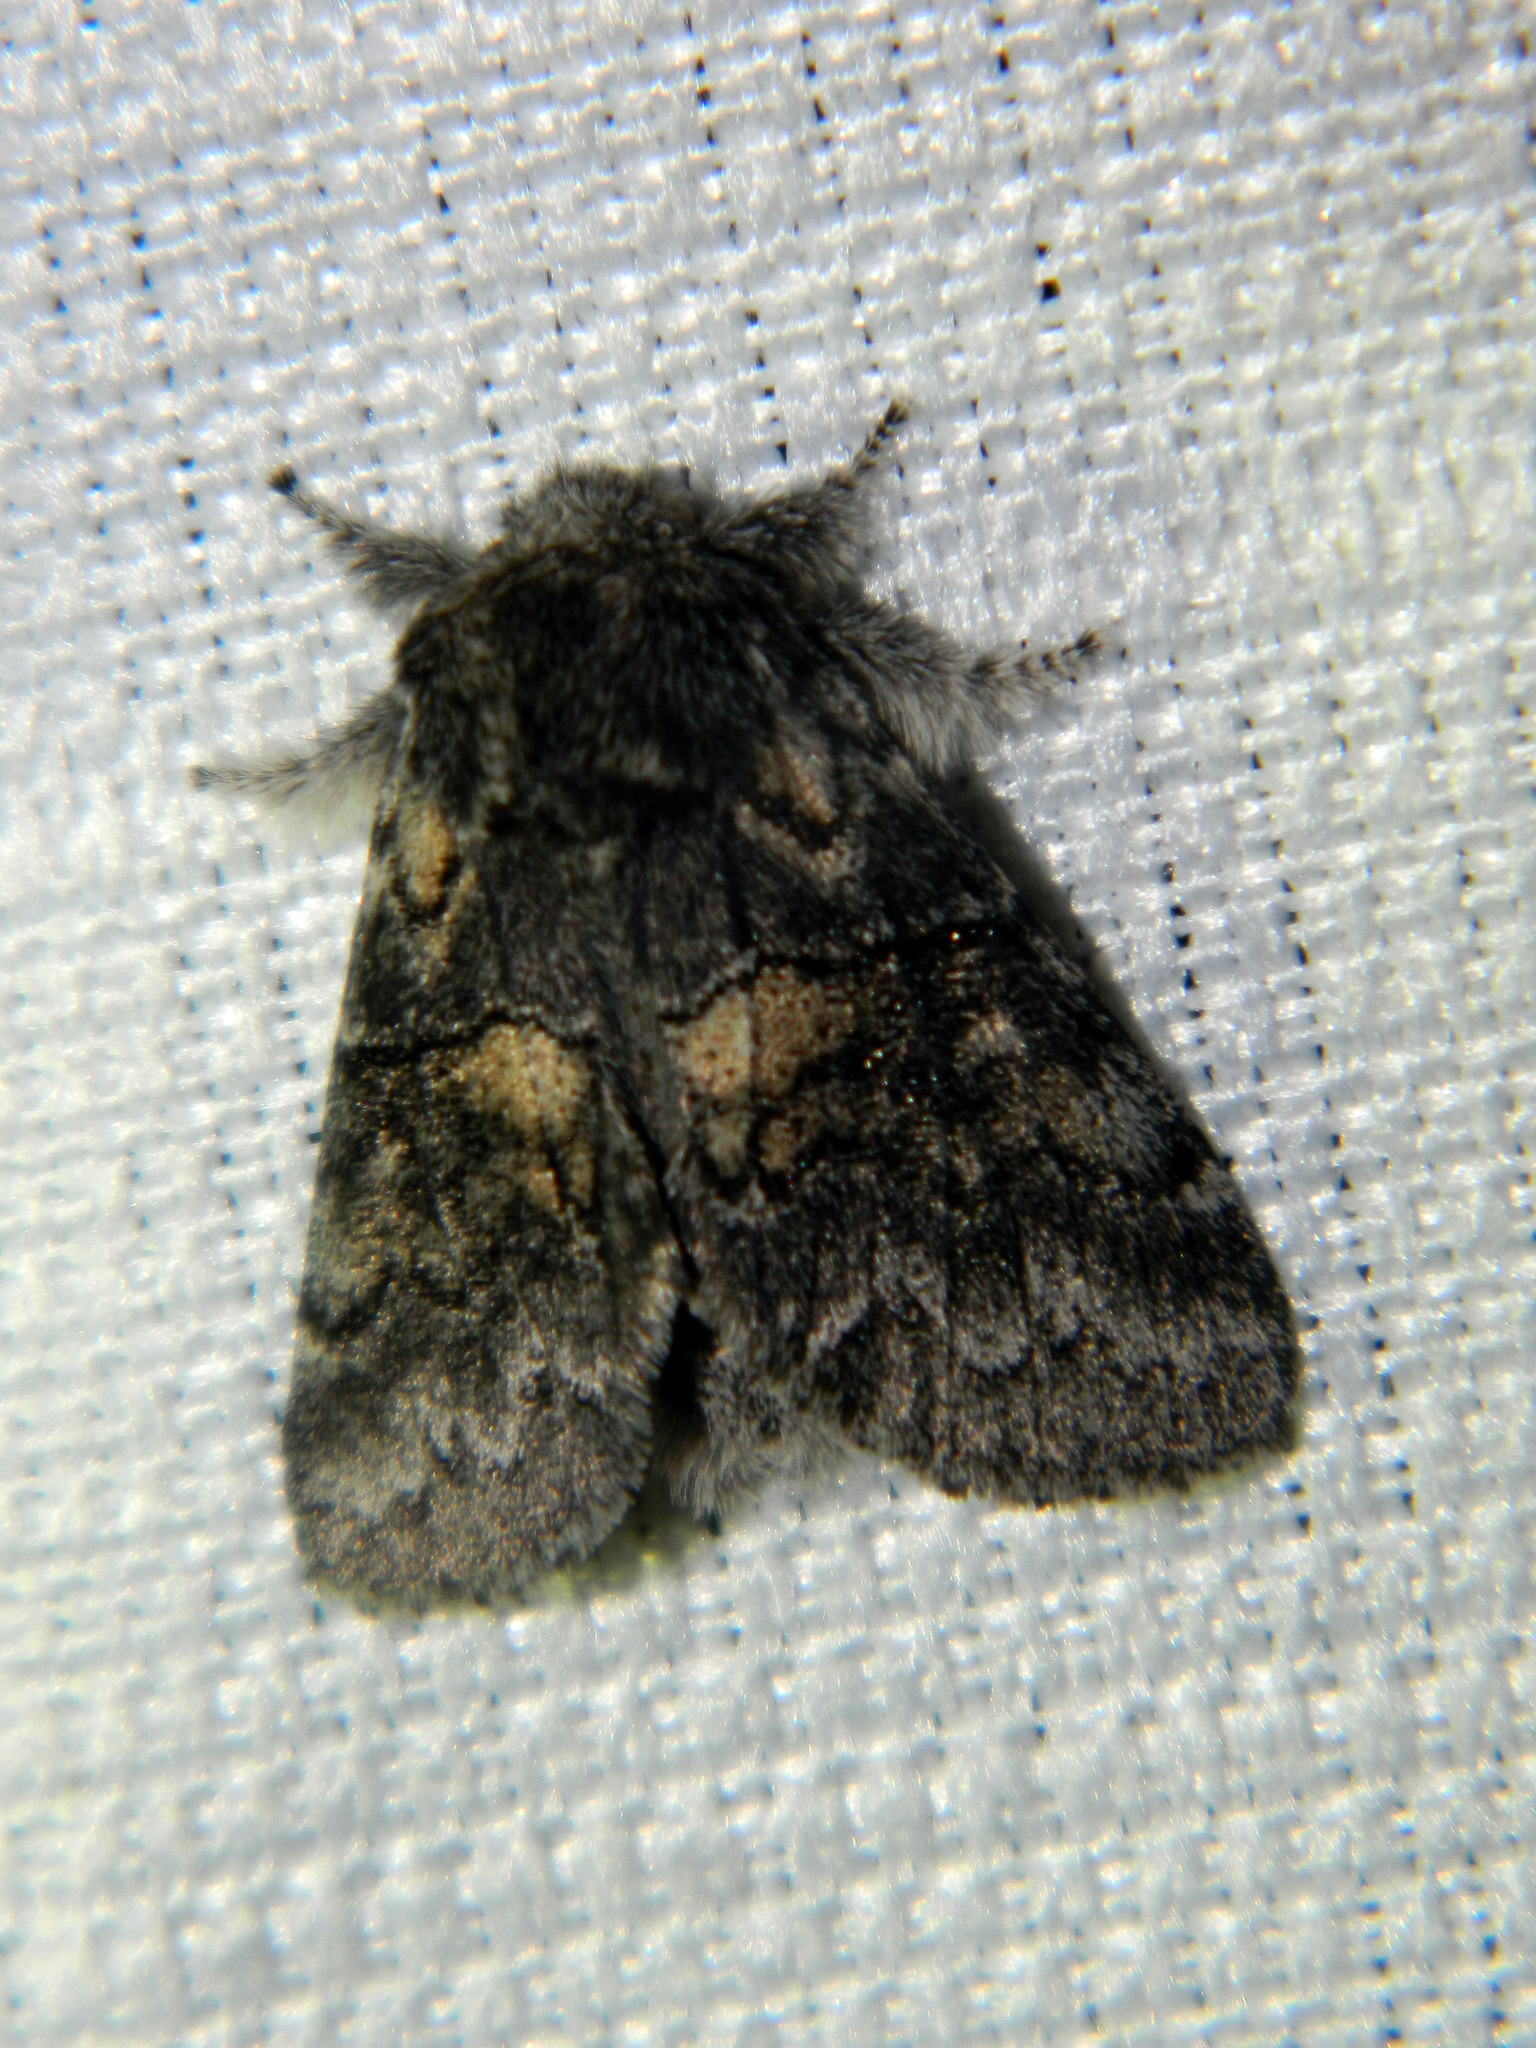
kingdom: Animalia
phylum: Arthropoda
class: Insecta
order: Lepidoptera
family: Notodontidae
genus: Gluphisia
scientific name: Gluphisia septentrionis
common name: Common gluphisia
